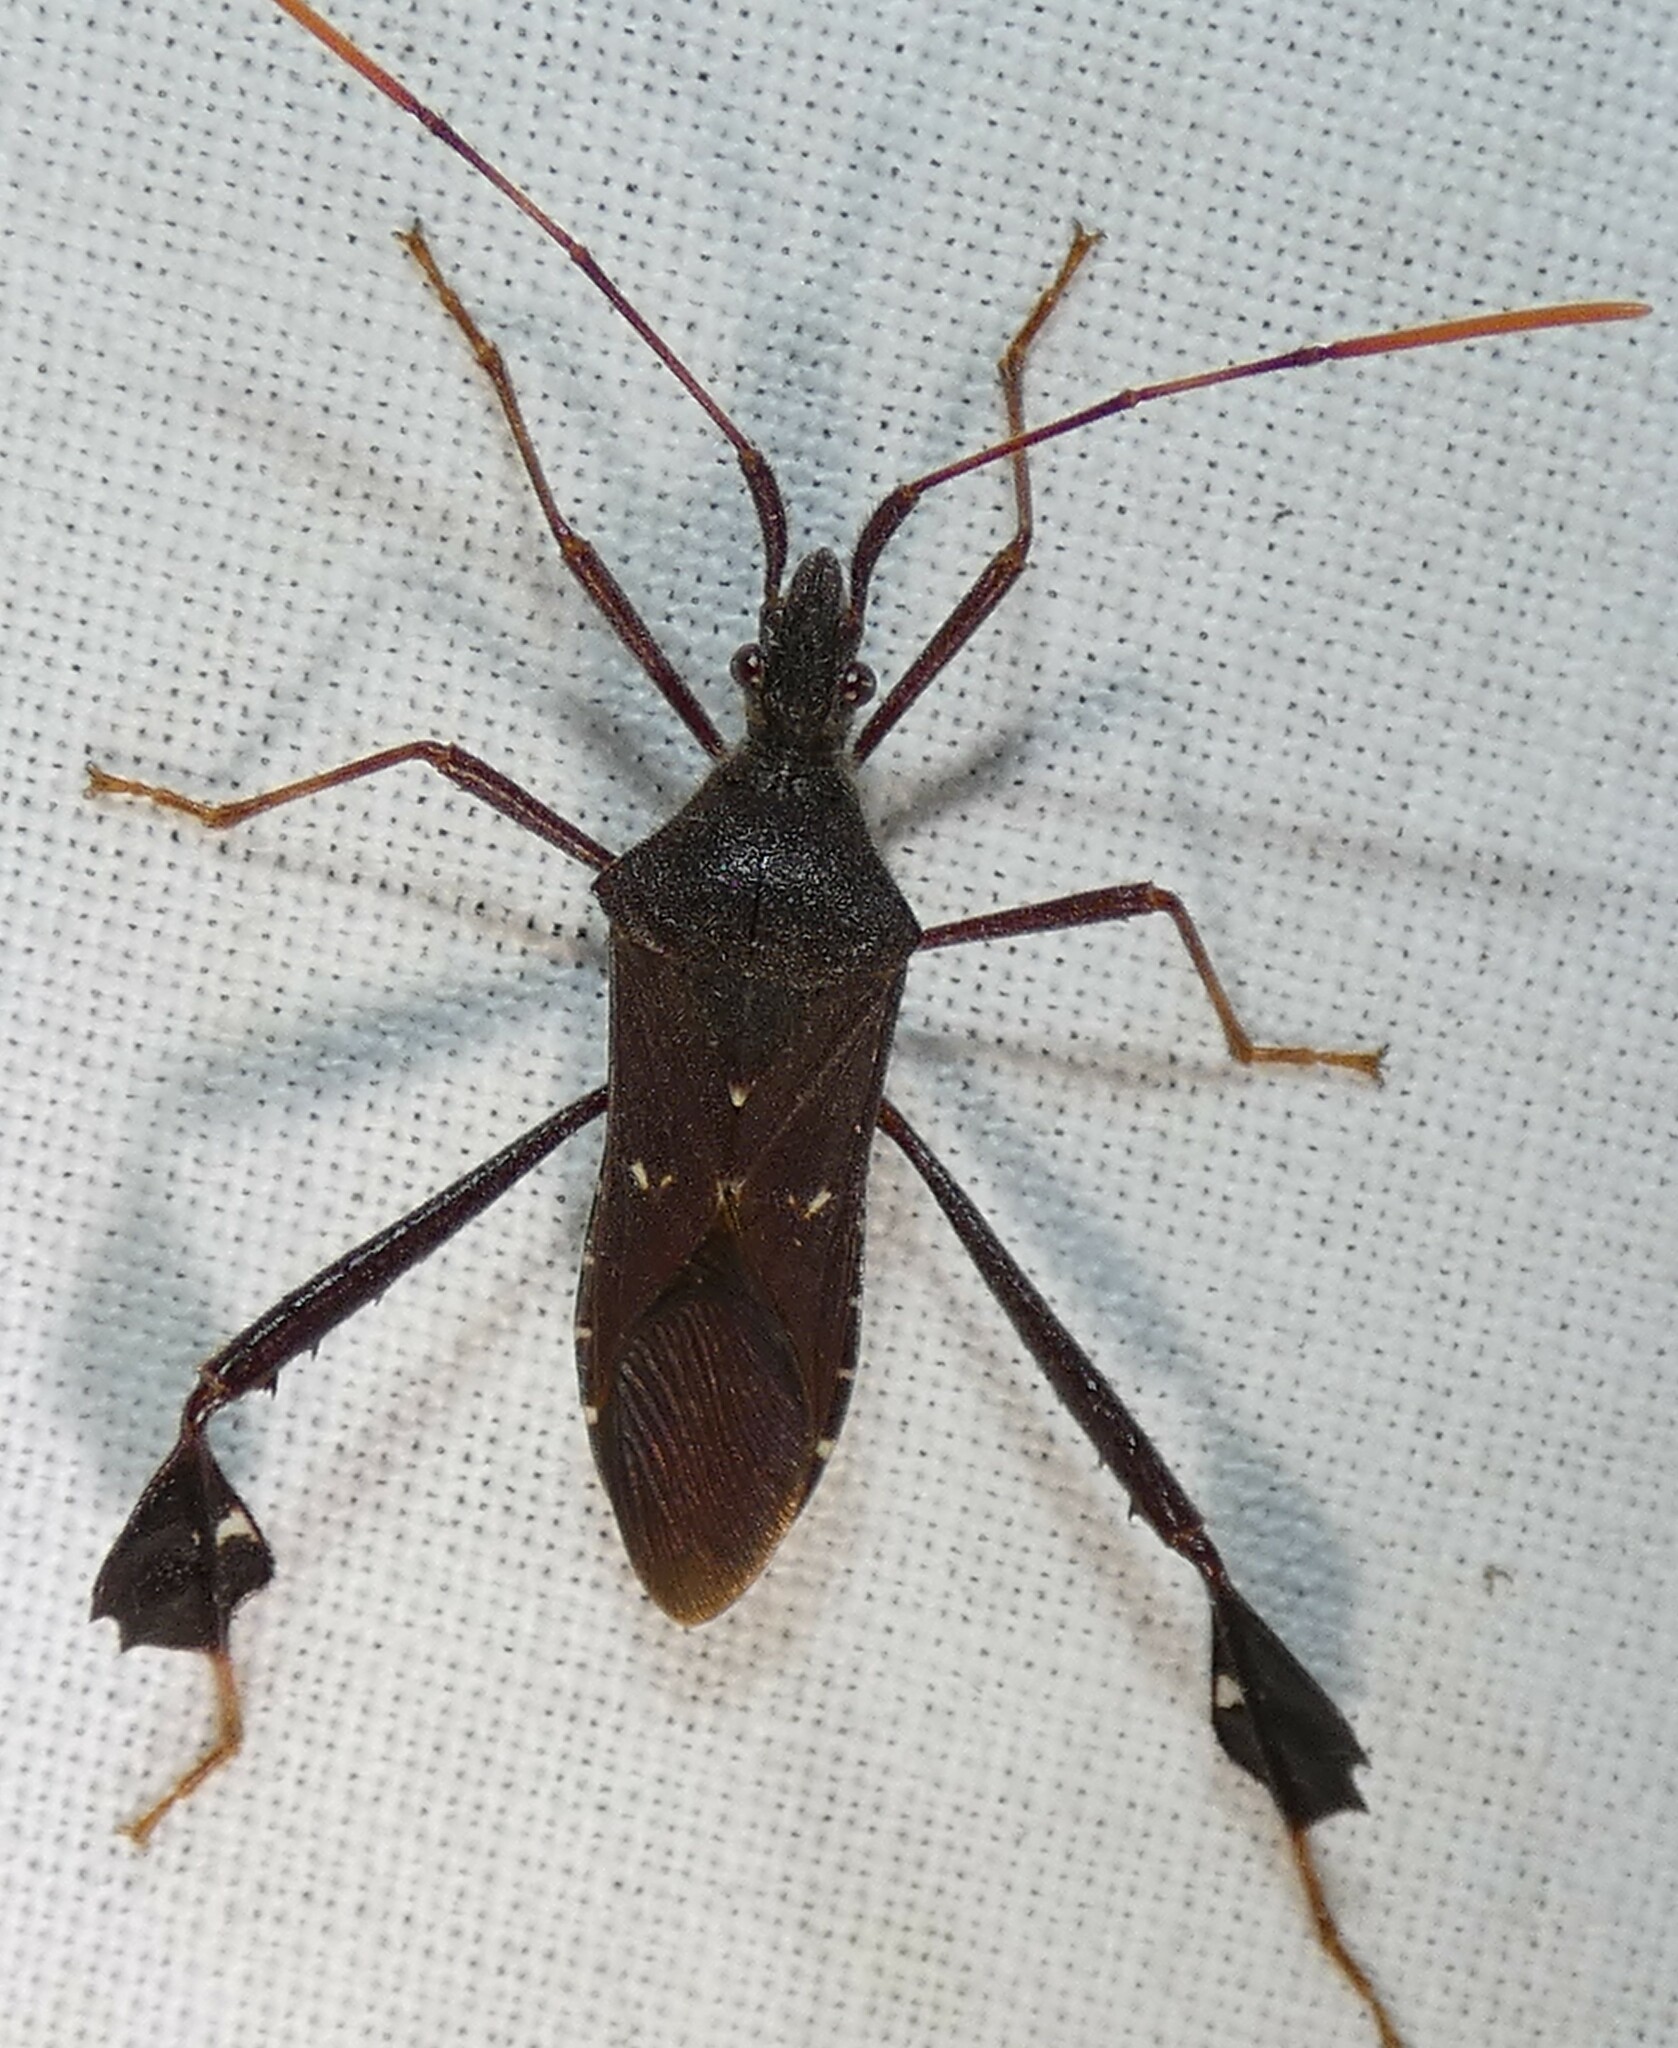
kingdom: Animalia
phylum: Arthropoda
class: Insecta
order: Hemiptera
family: Coreidae
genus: Leptoglossus
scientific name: Leptoglossus oppositus
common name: Northern leaf-footed bug
